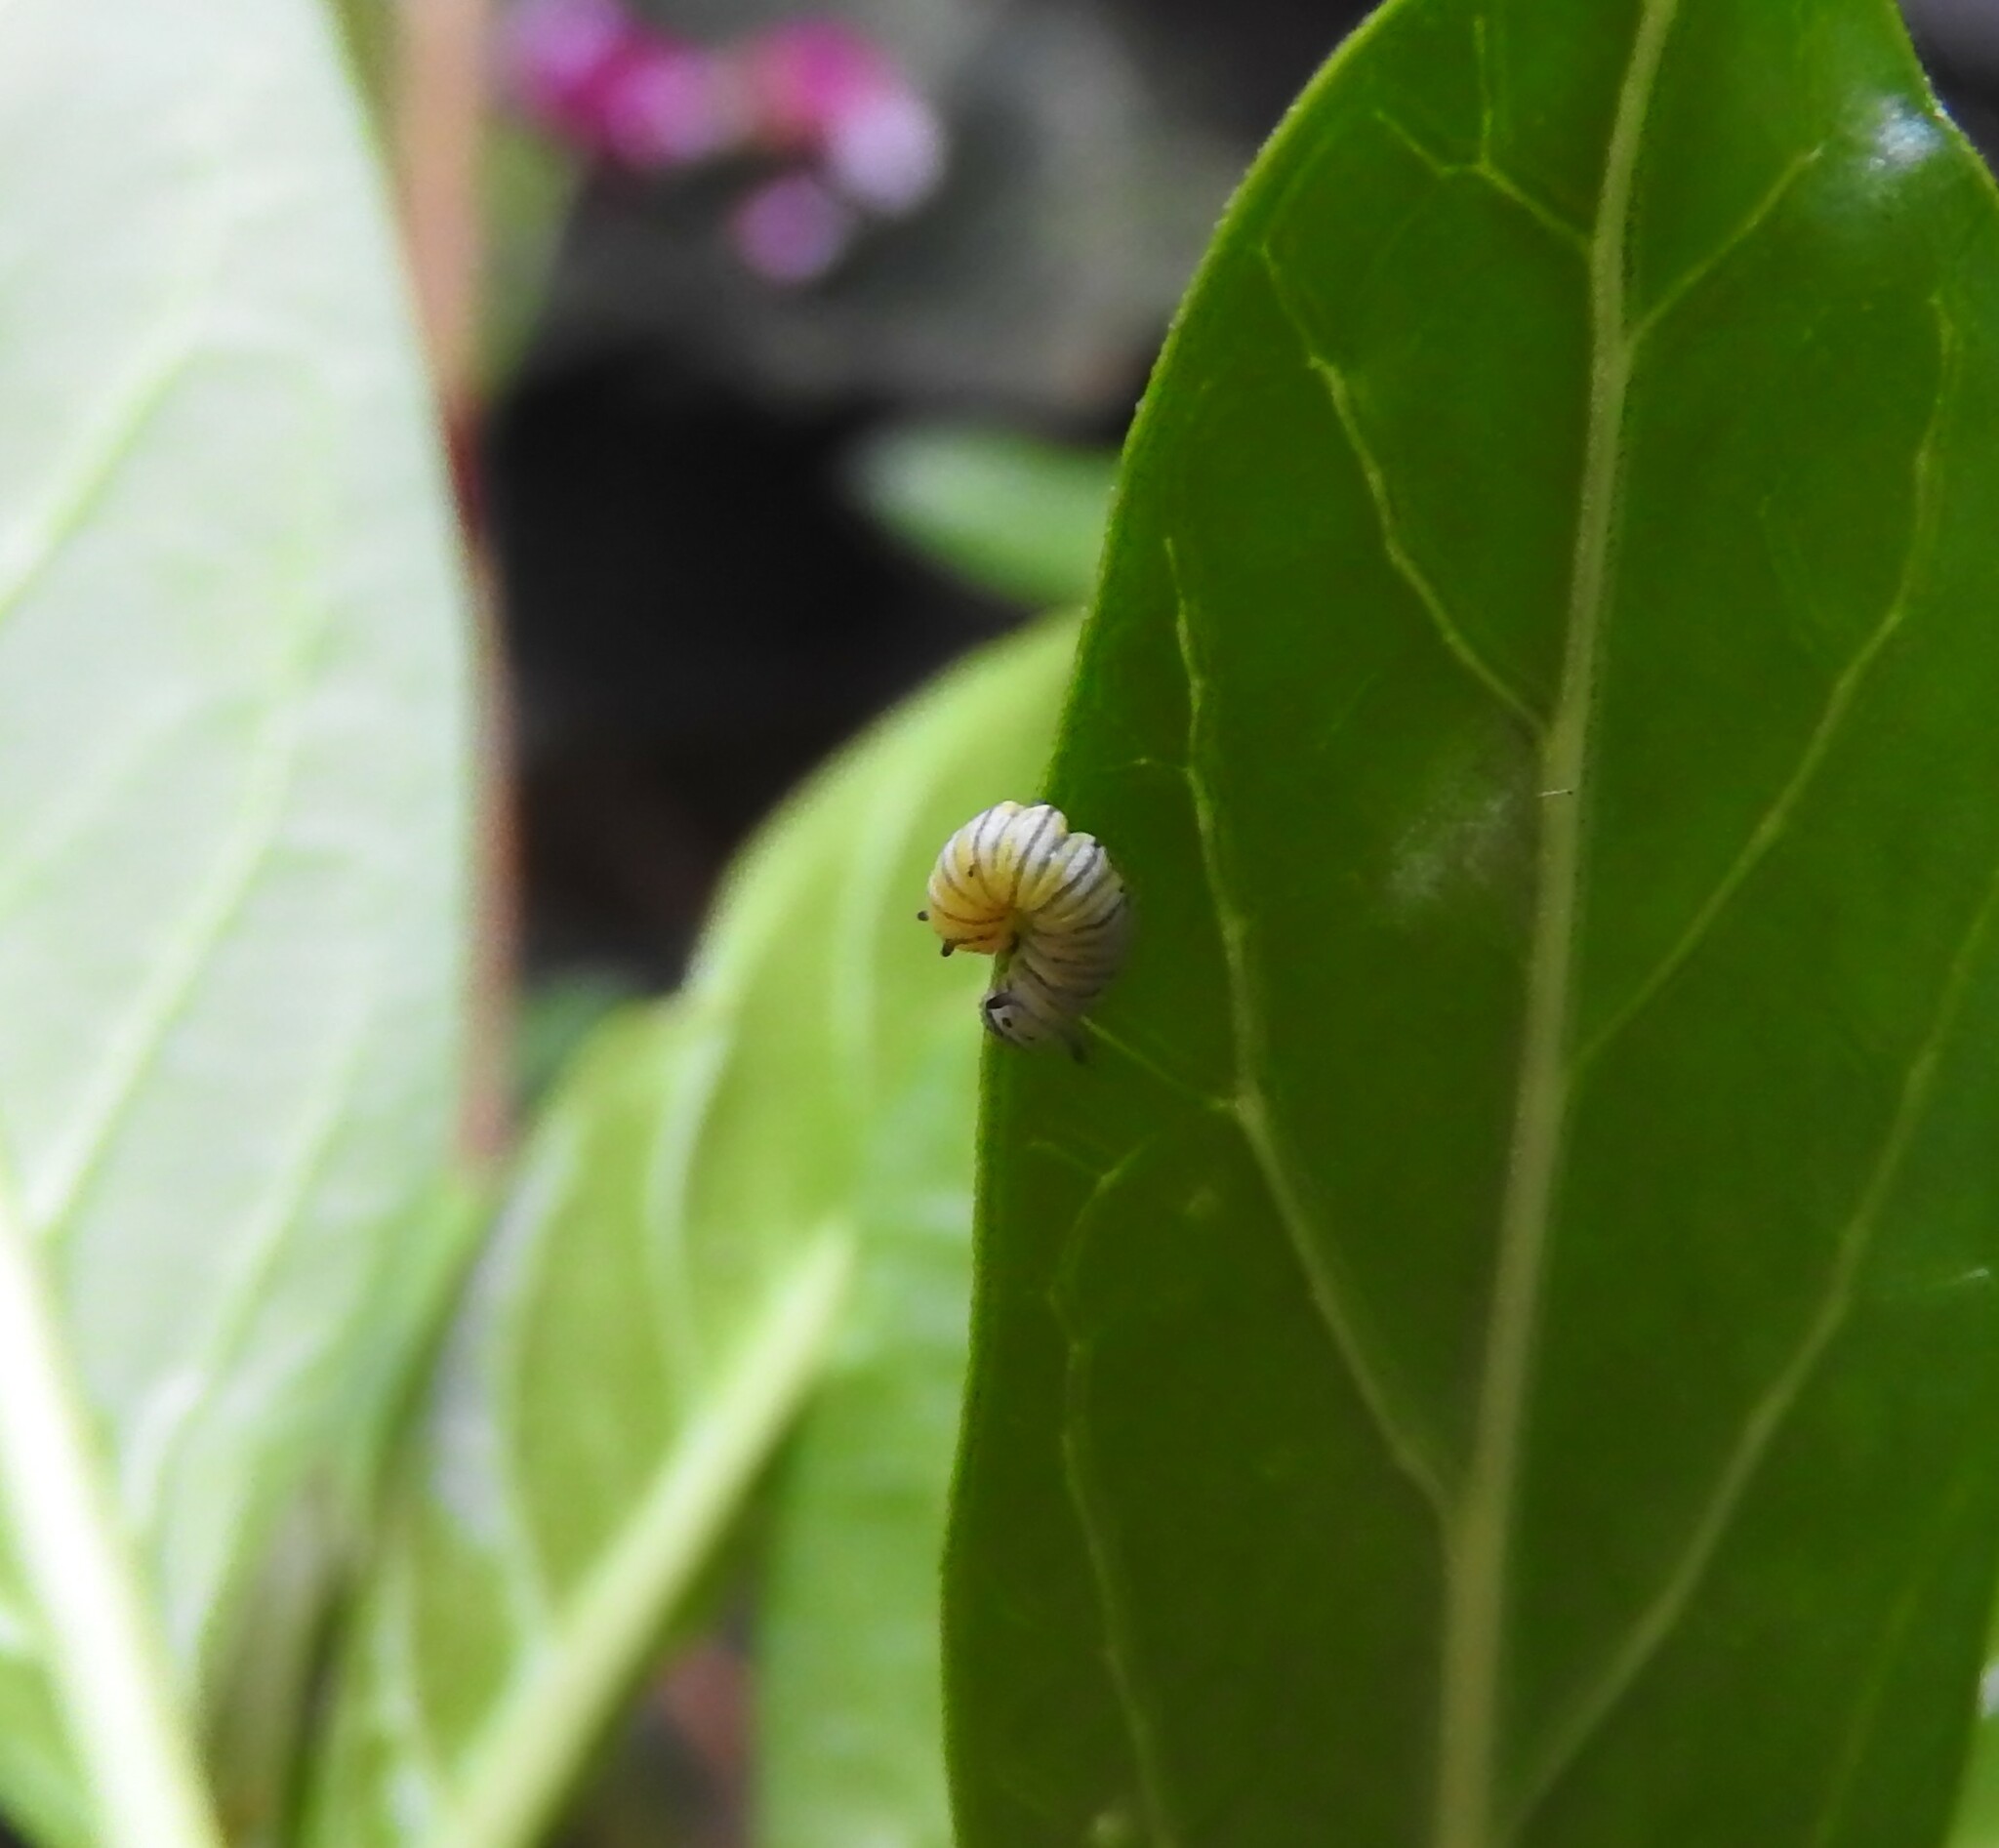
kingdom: Animalia
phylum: Arthropoda
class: Insecta
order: Lepidoptera
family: Nymphalidae
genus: Danaus
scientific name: Danaus plexippus
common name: Monarch
